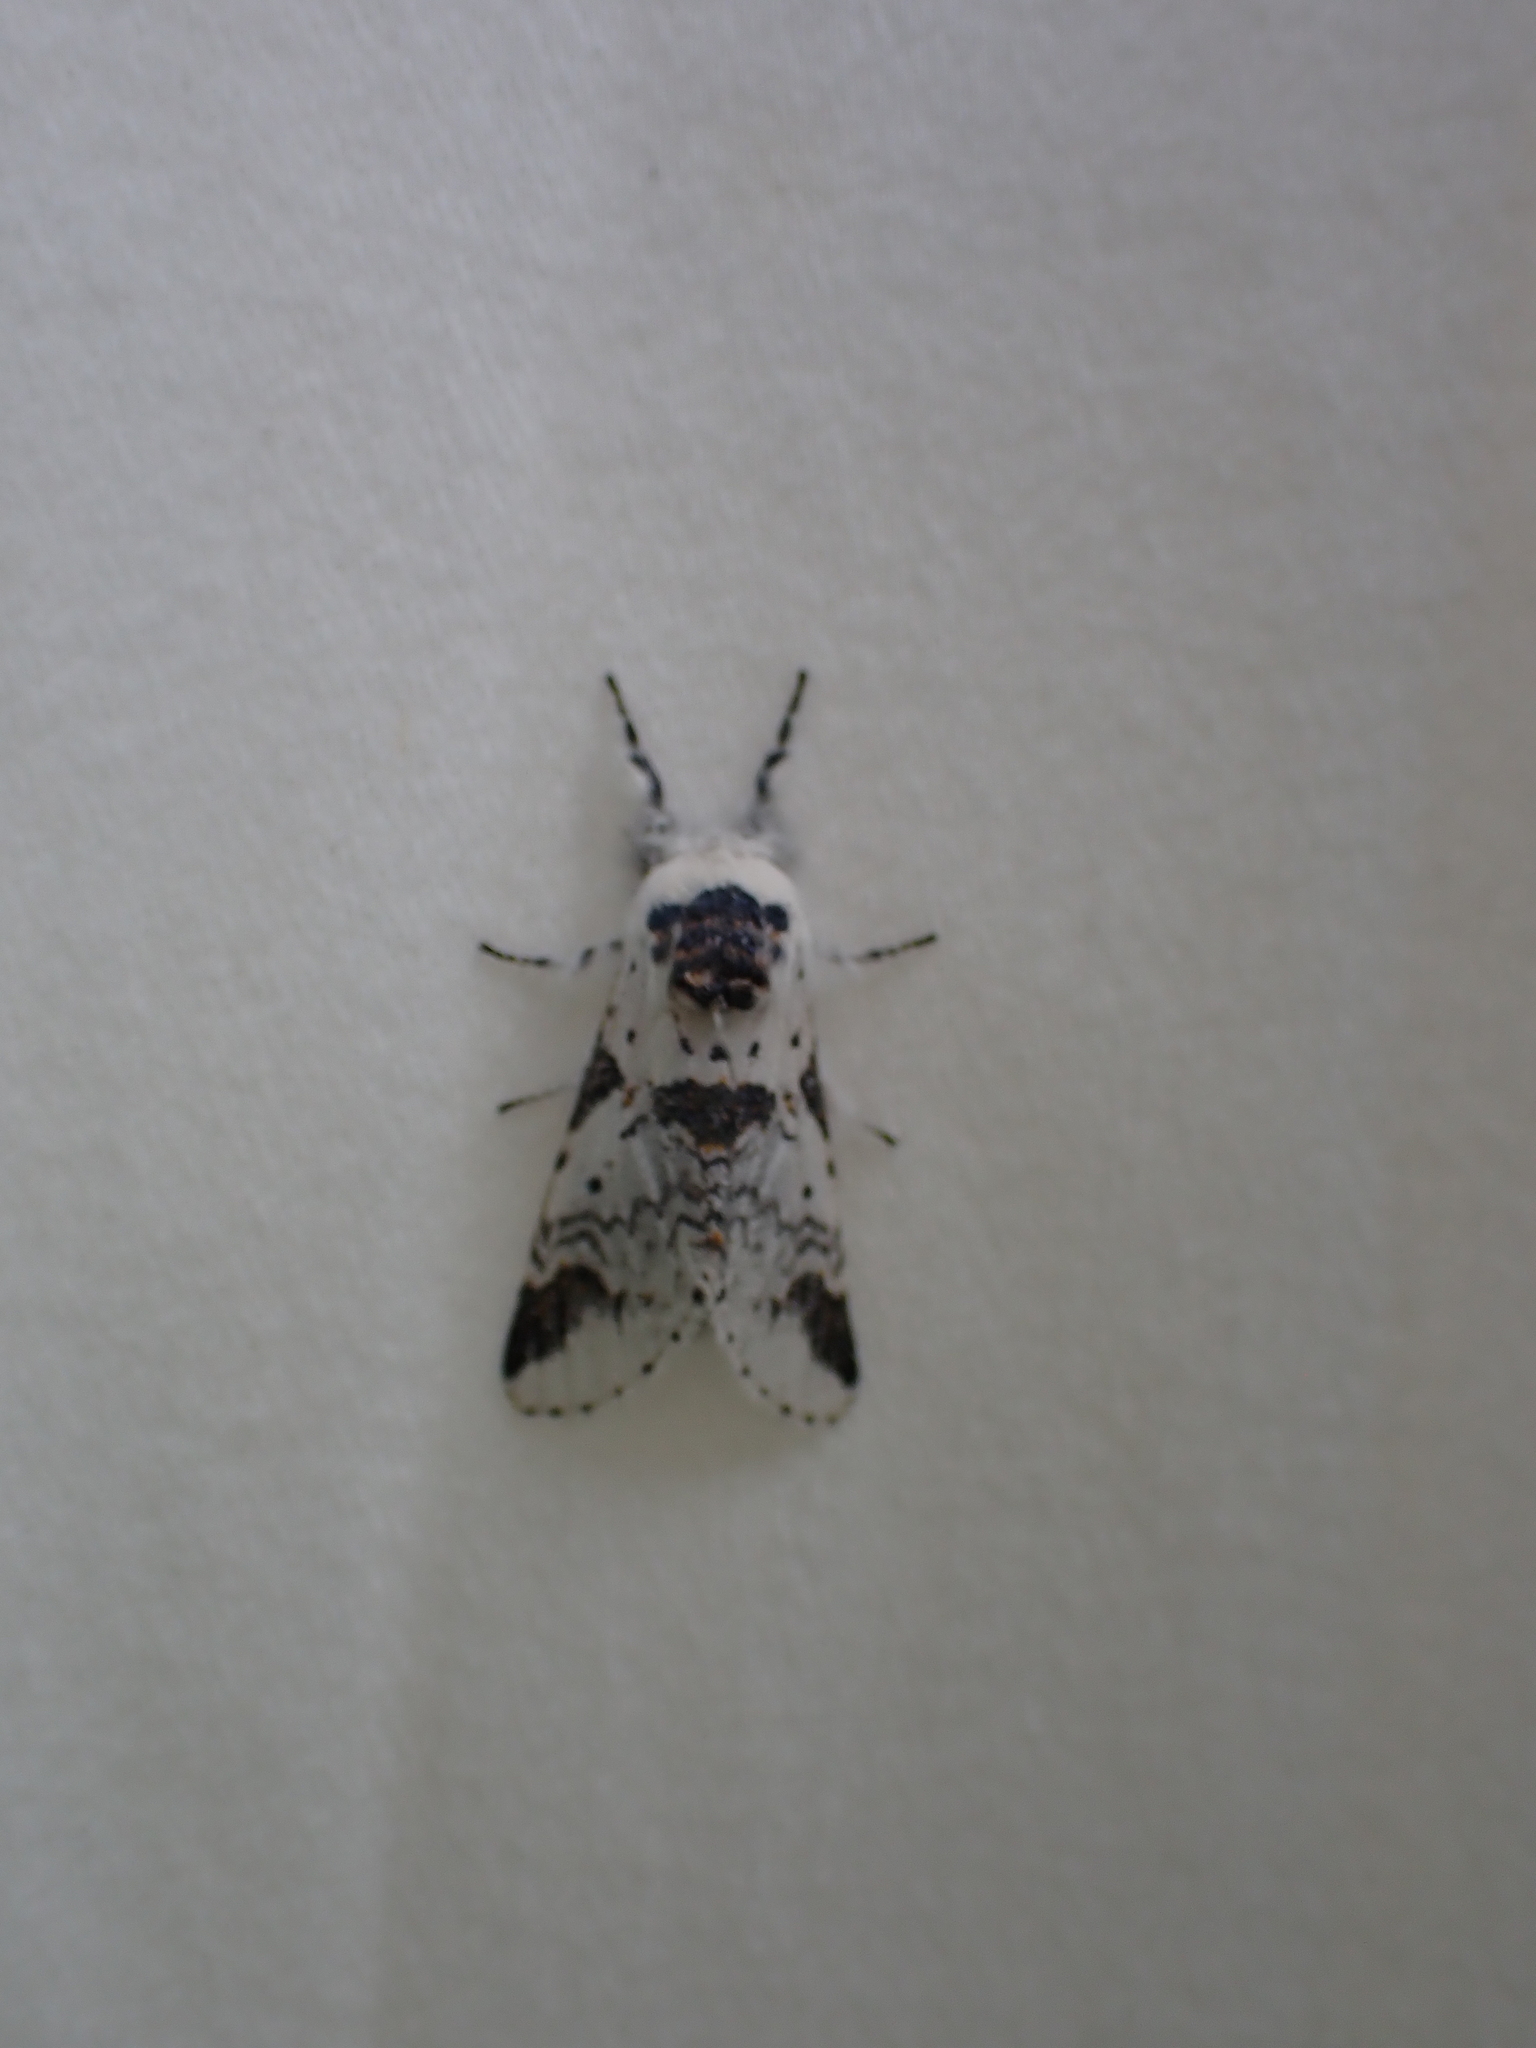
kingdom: Animalia
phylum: Arthropoda
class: Insecta
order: Lepidoptera
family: Notodontidae
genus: Furcula
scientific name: Furcula scolopendrina
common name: Zigzag furcula moth
